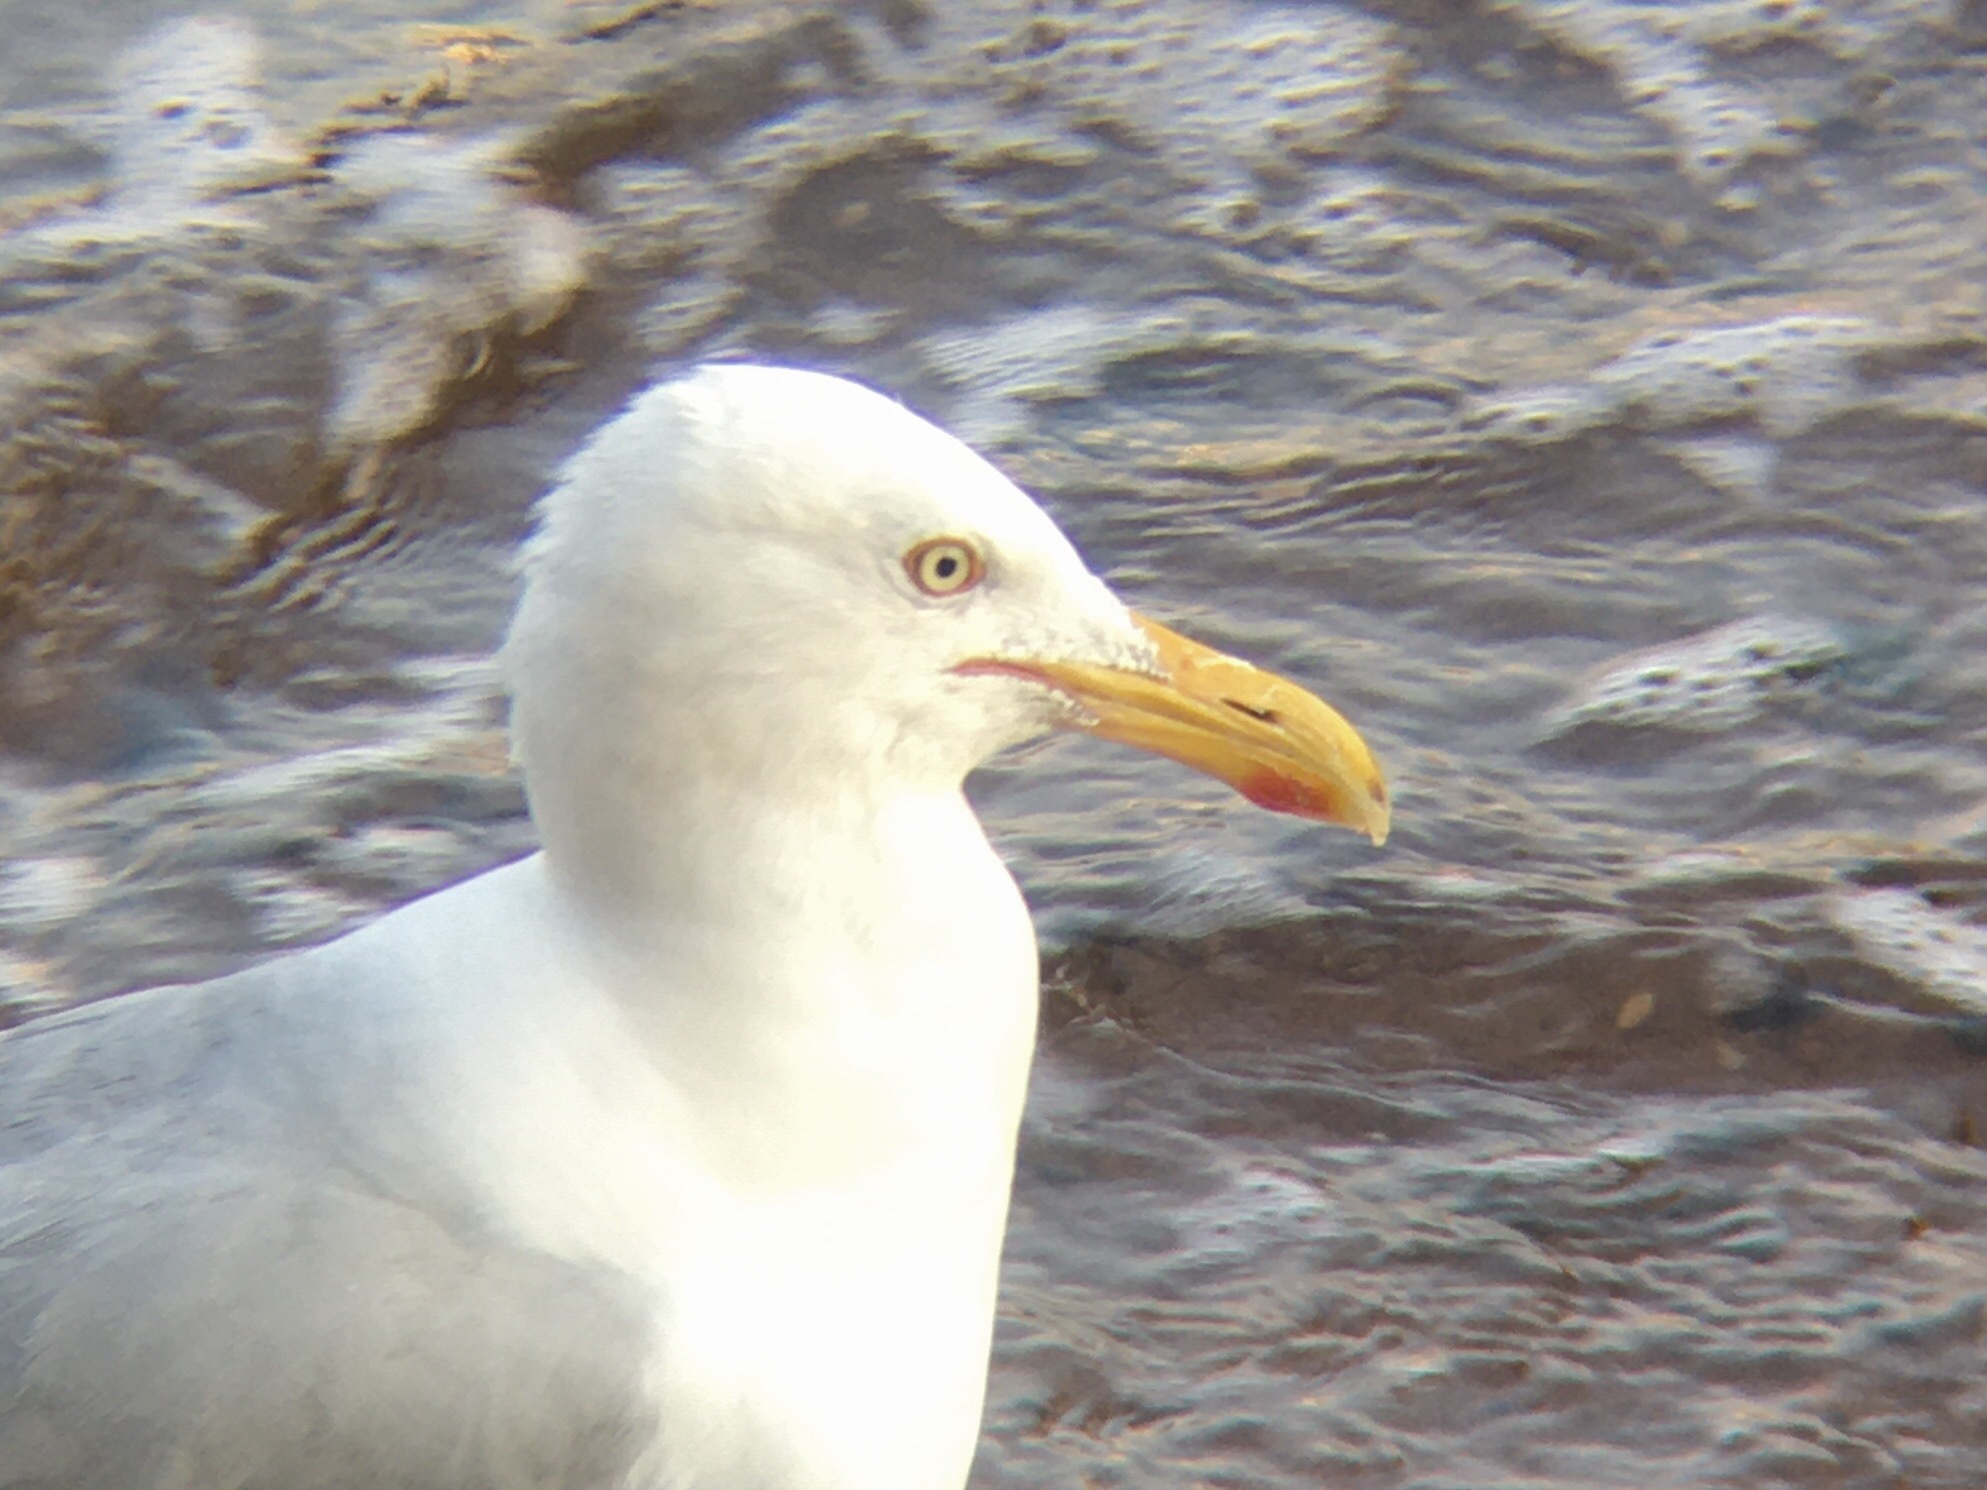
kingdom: Animalia
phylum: Chordata
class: Aves
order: Charadriiformes
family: Laridae
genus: Larus
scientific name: Larus argentatus
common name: Herring gull
